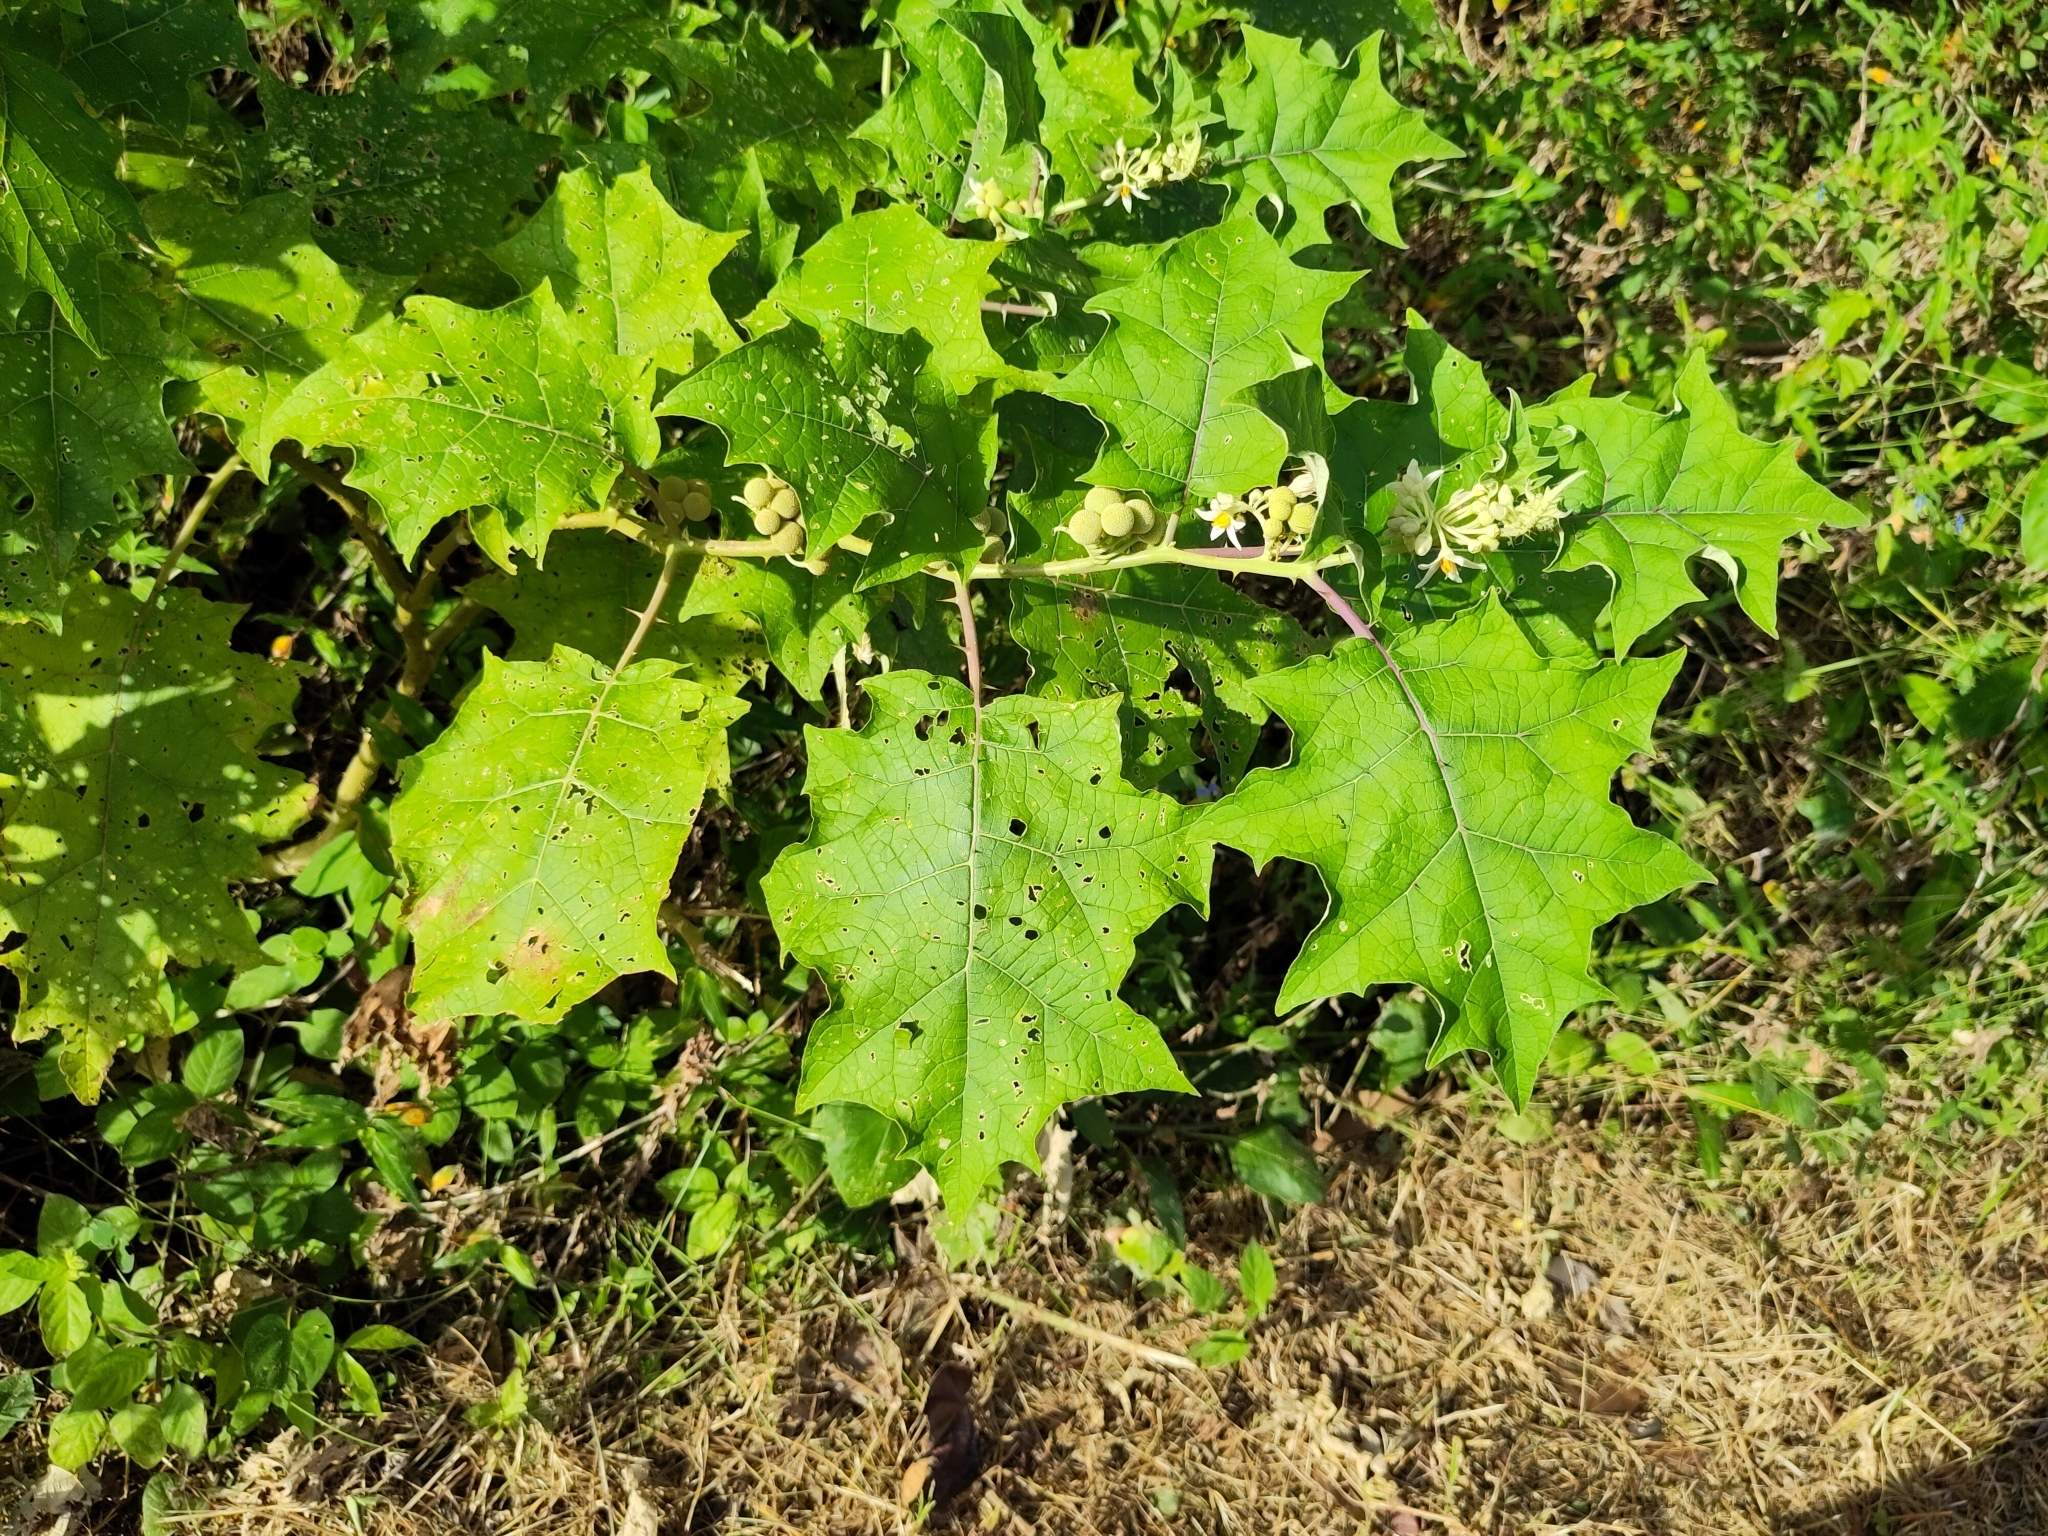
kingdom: Plantae
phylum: Tracheophyta
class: Magnoliopsida
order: Solanales
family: Solanaceae
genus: Solanum
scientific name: Solanum
